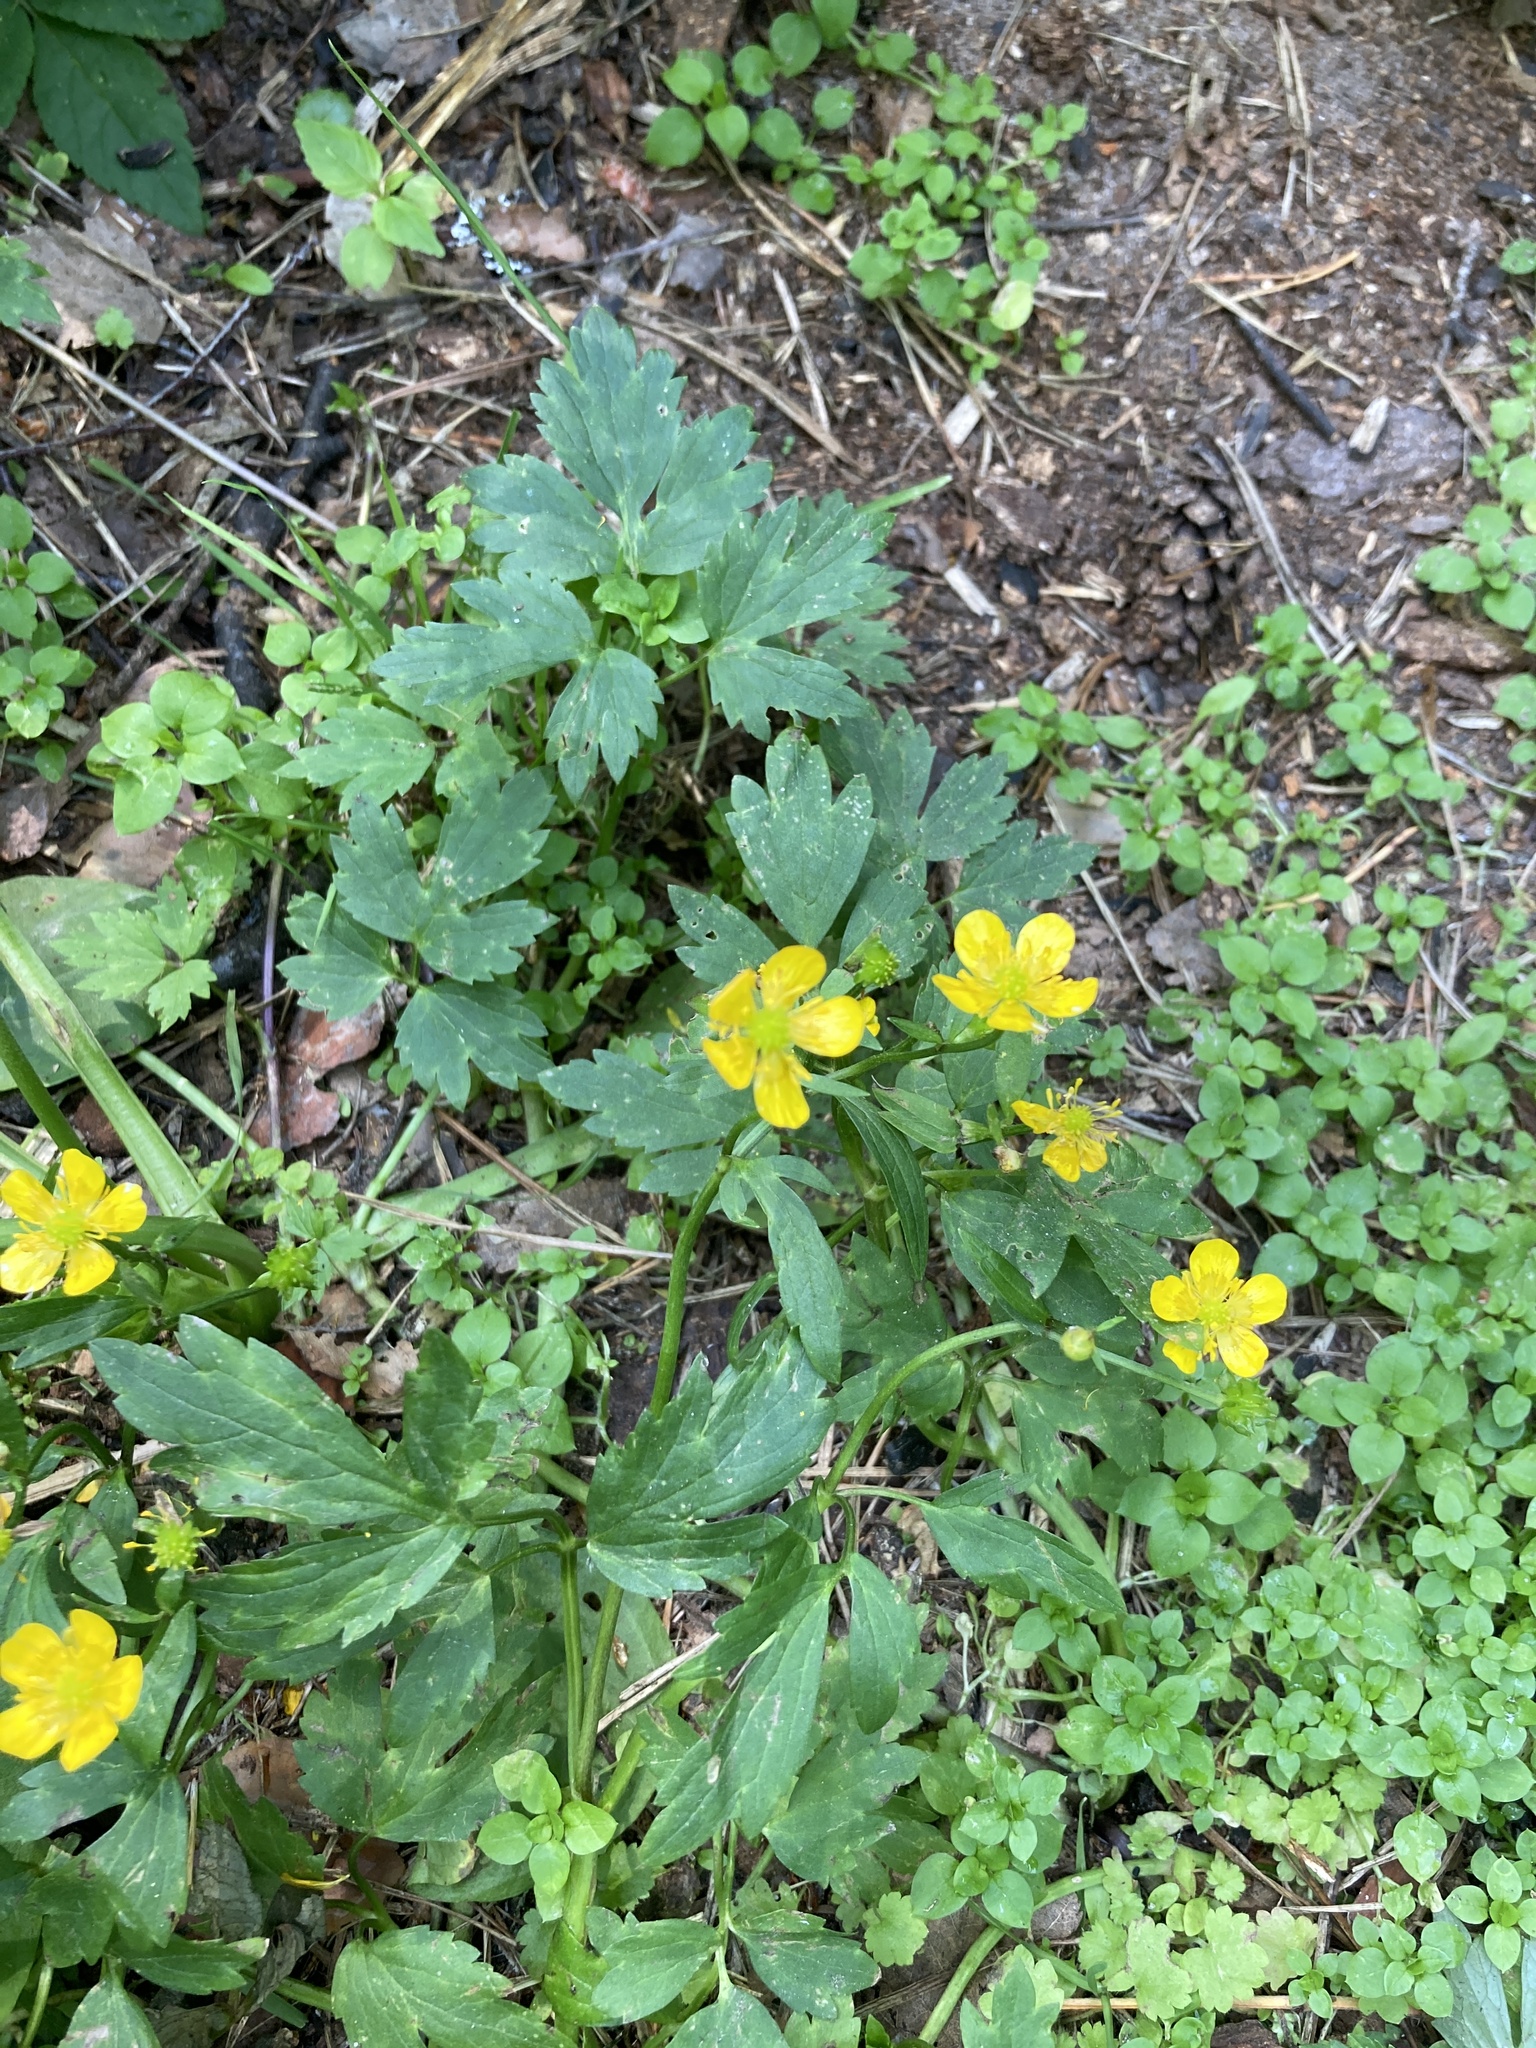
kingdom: Plantae
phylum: Tracheophyta
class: Magnoliopsida
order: Ranunculales
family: Ranunculaceae
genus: Ranunculus
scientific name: Ranunculus repens
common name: Creeping buttercup
